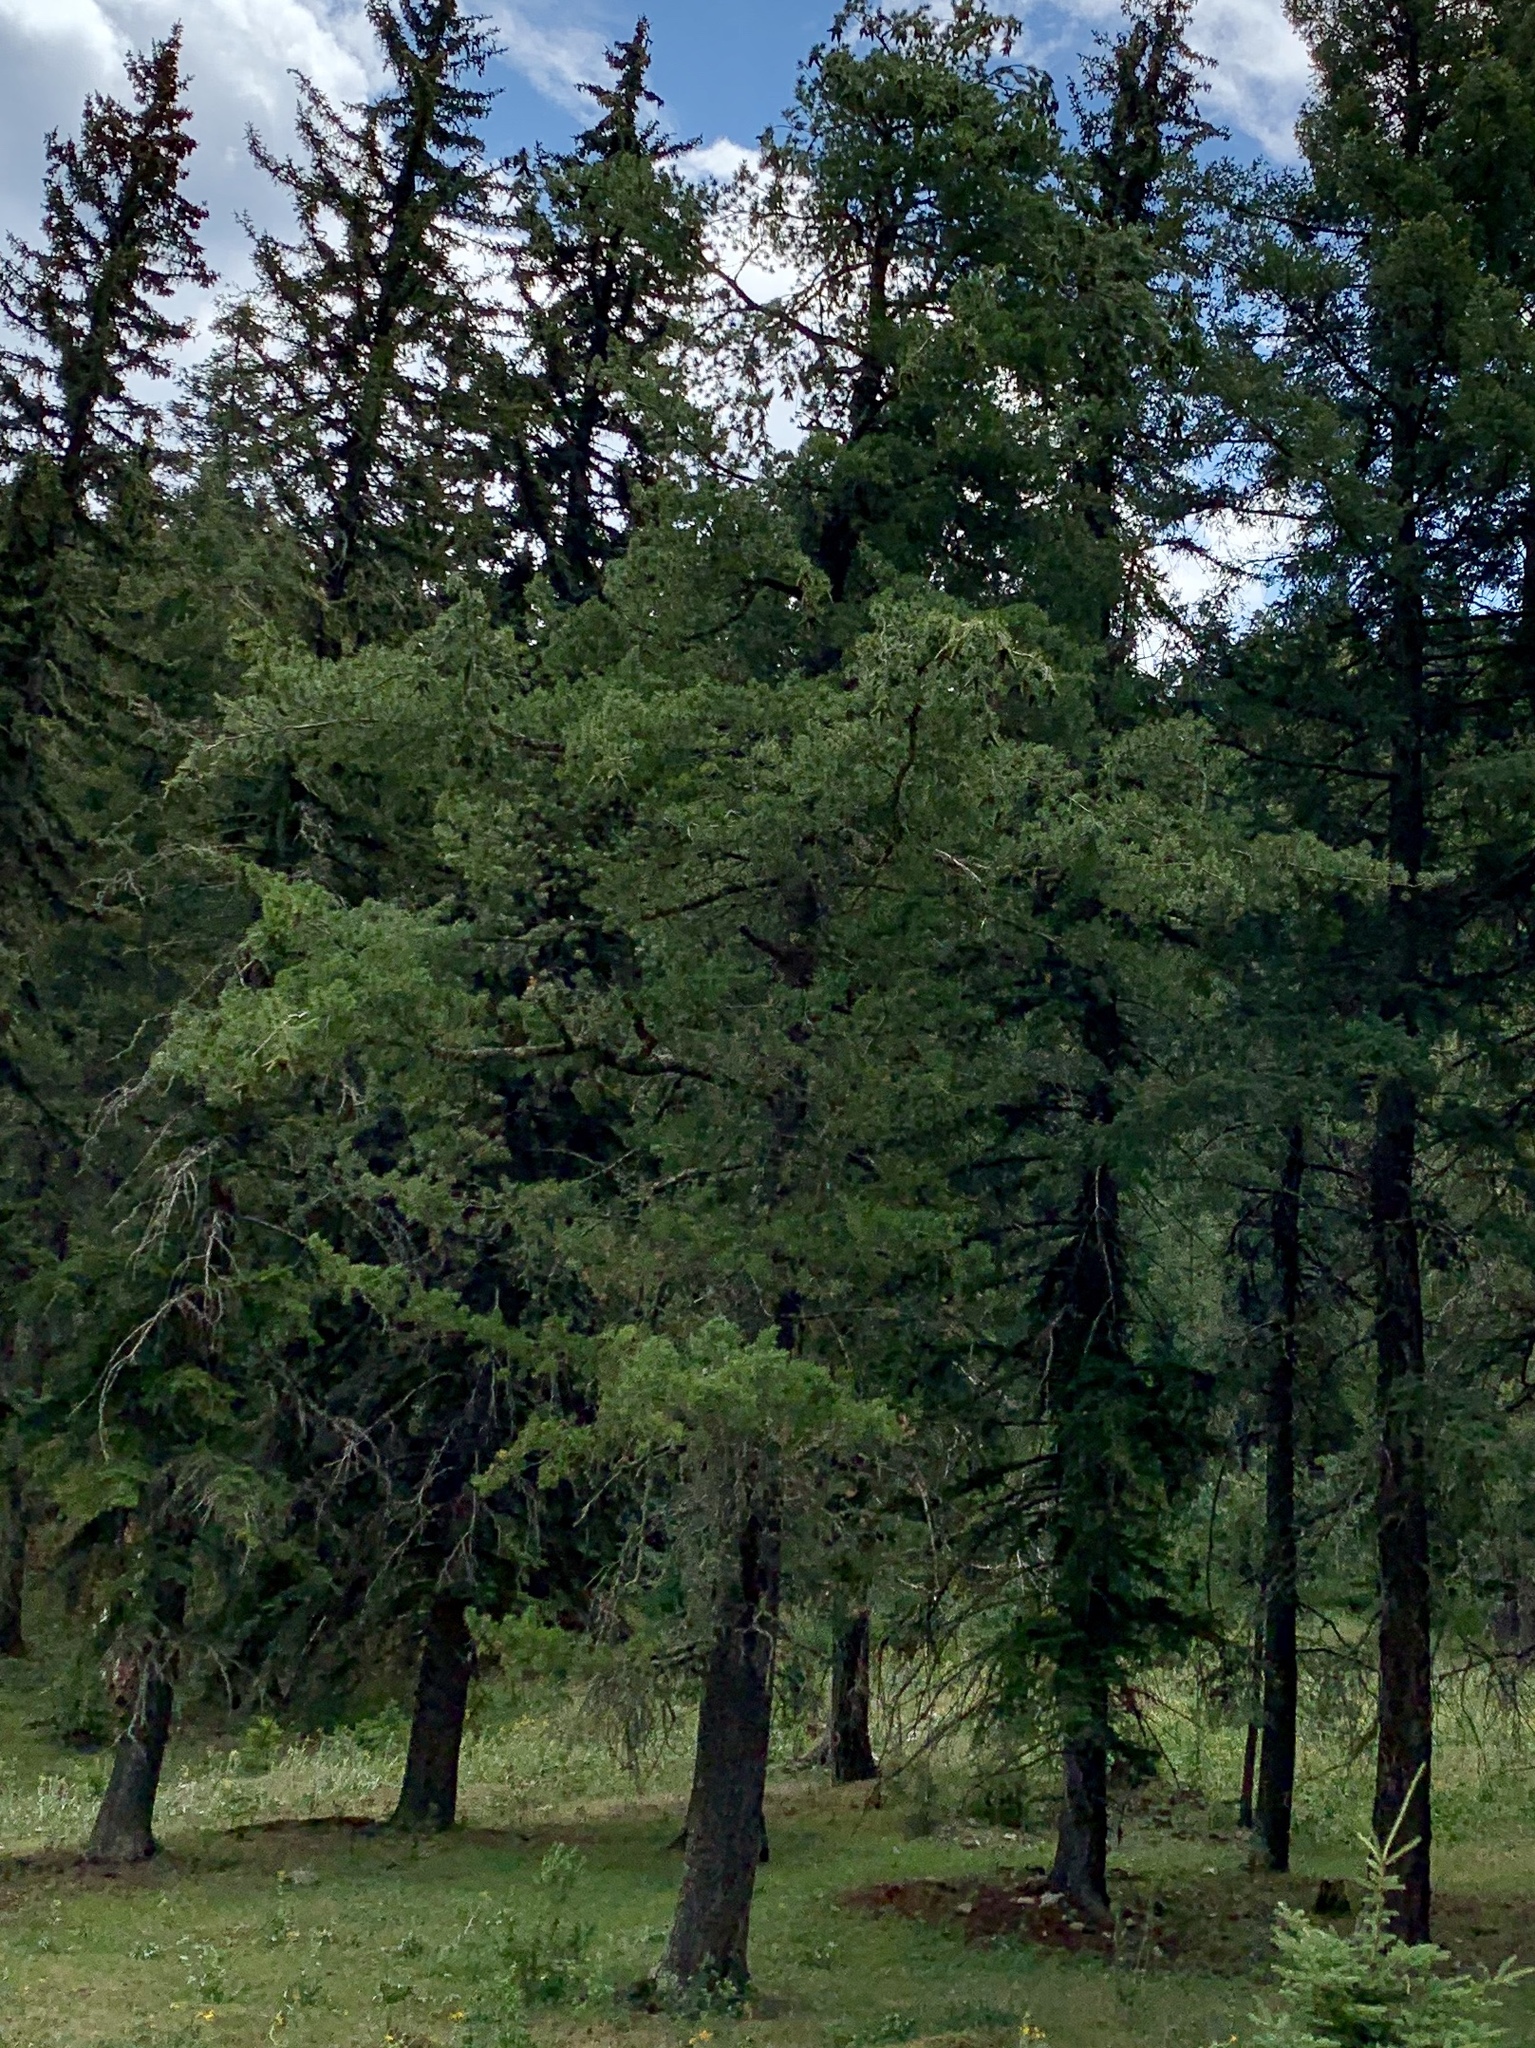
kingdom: Plantae
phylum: Tracheophyta
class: Pinopsida
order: Pinales
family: Pinaceae
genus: Pinus
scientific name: Pinus strobiformis
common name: Southwestern white pine
